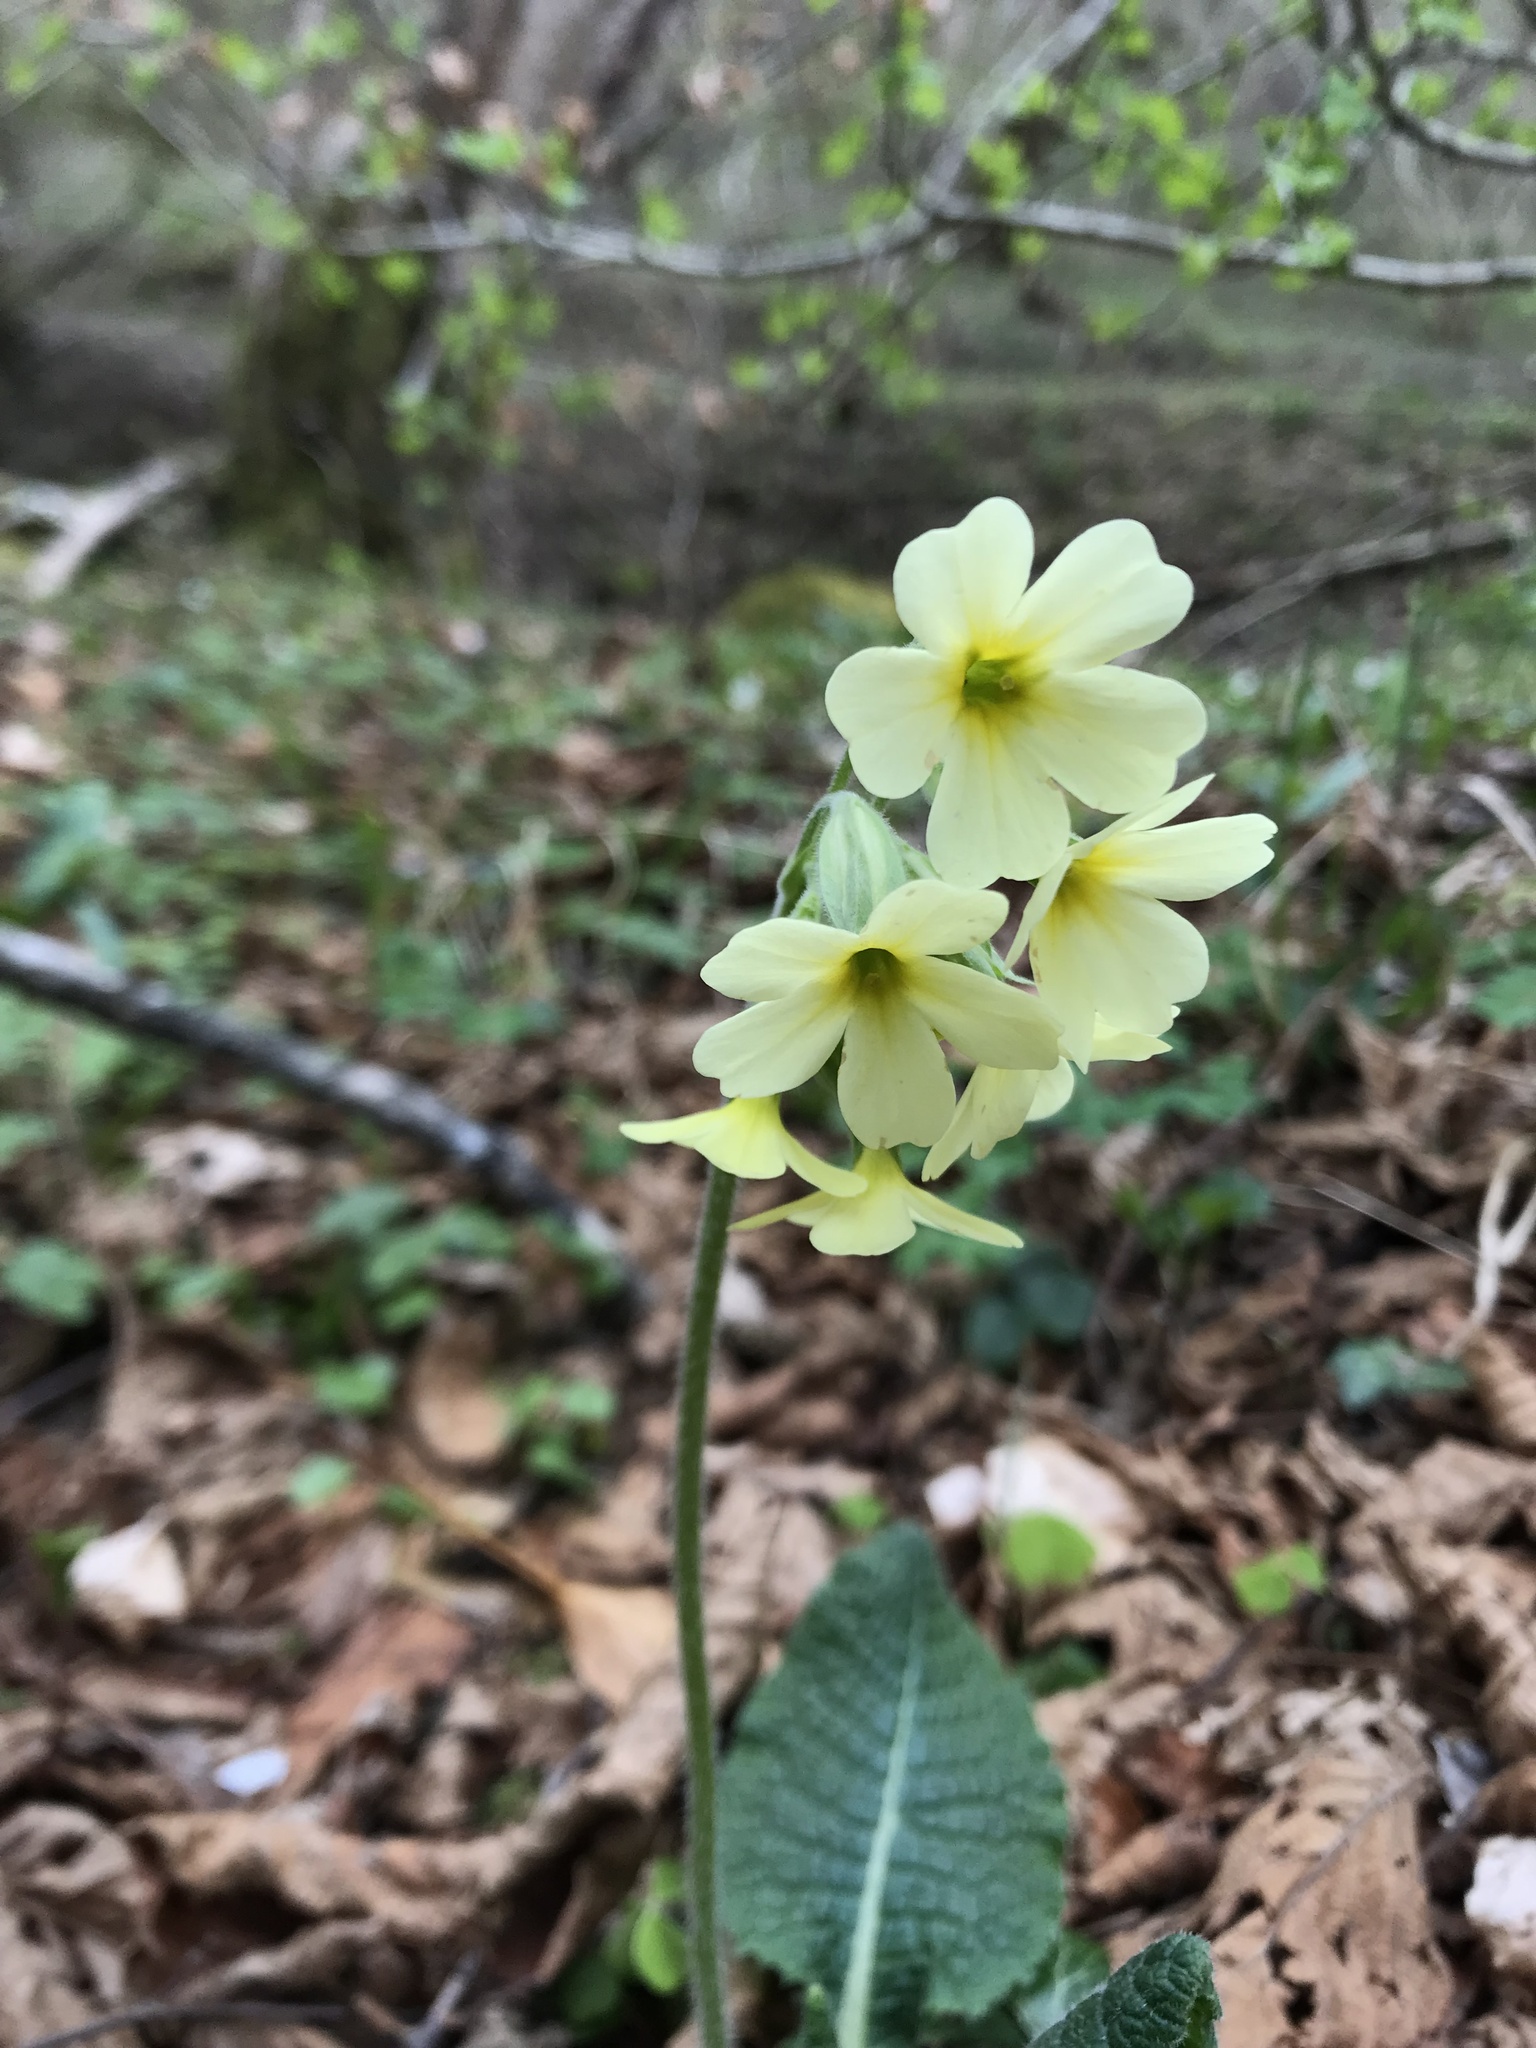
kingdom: Plantae
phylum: Tracheophyta
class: Magnoliopsida
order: Ericales
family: Primulaceae
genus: Primula
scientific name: Primula elatior
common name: Oxlip
